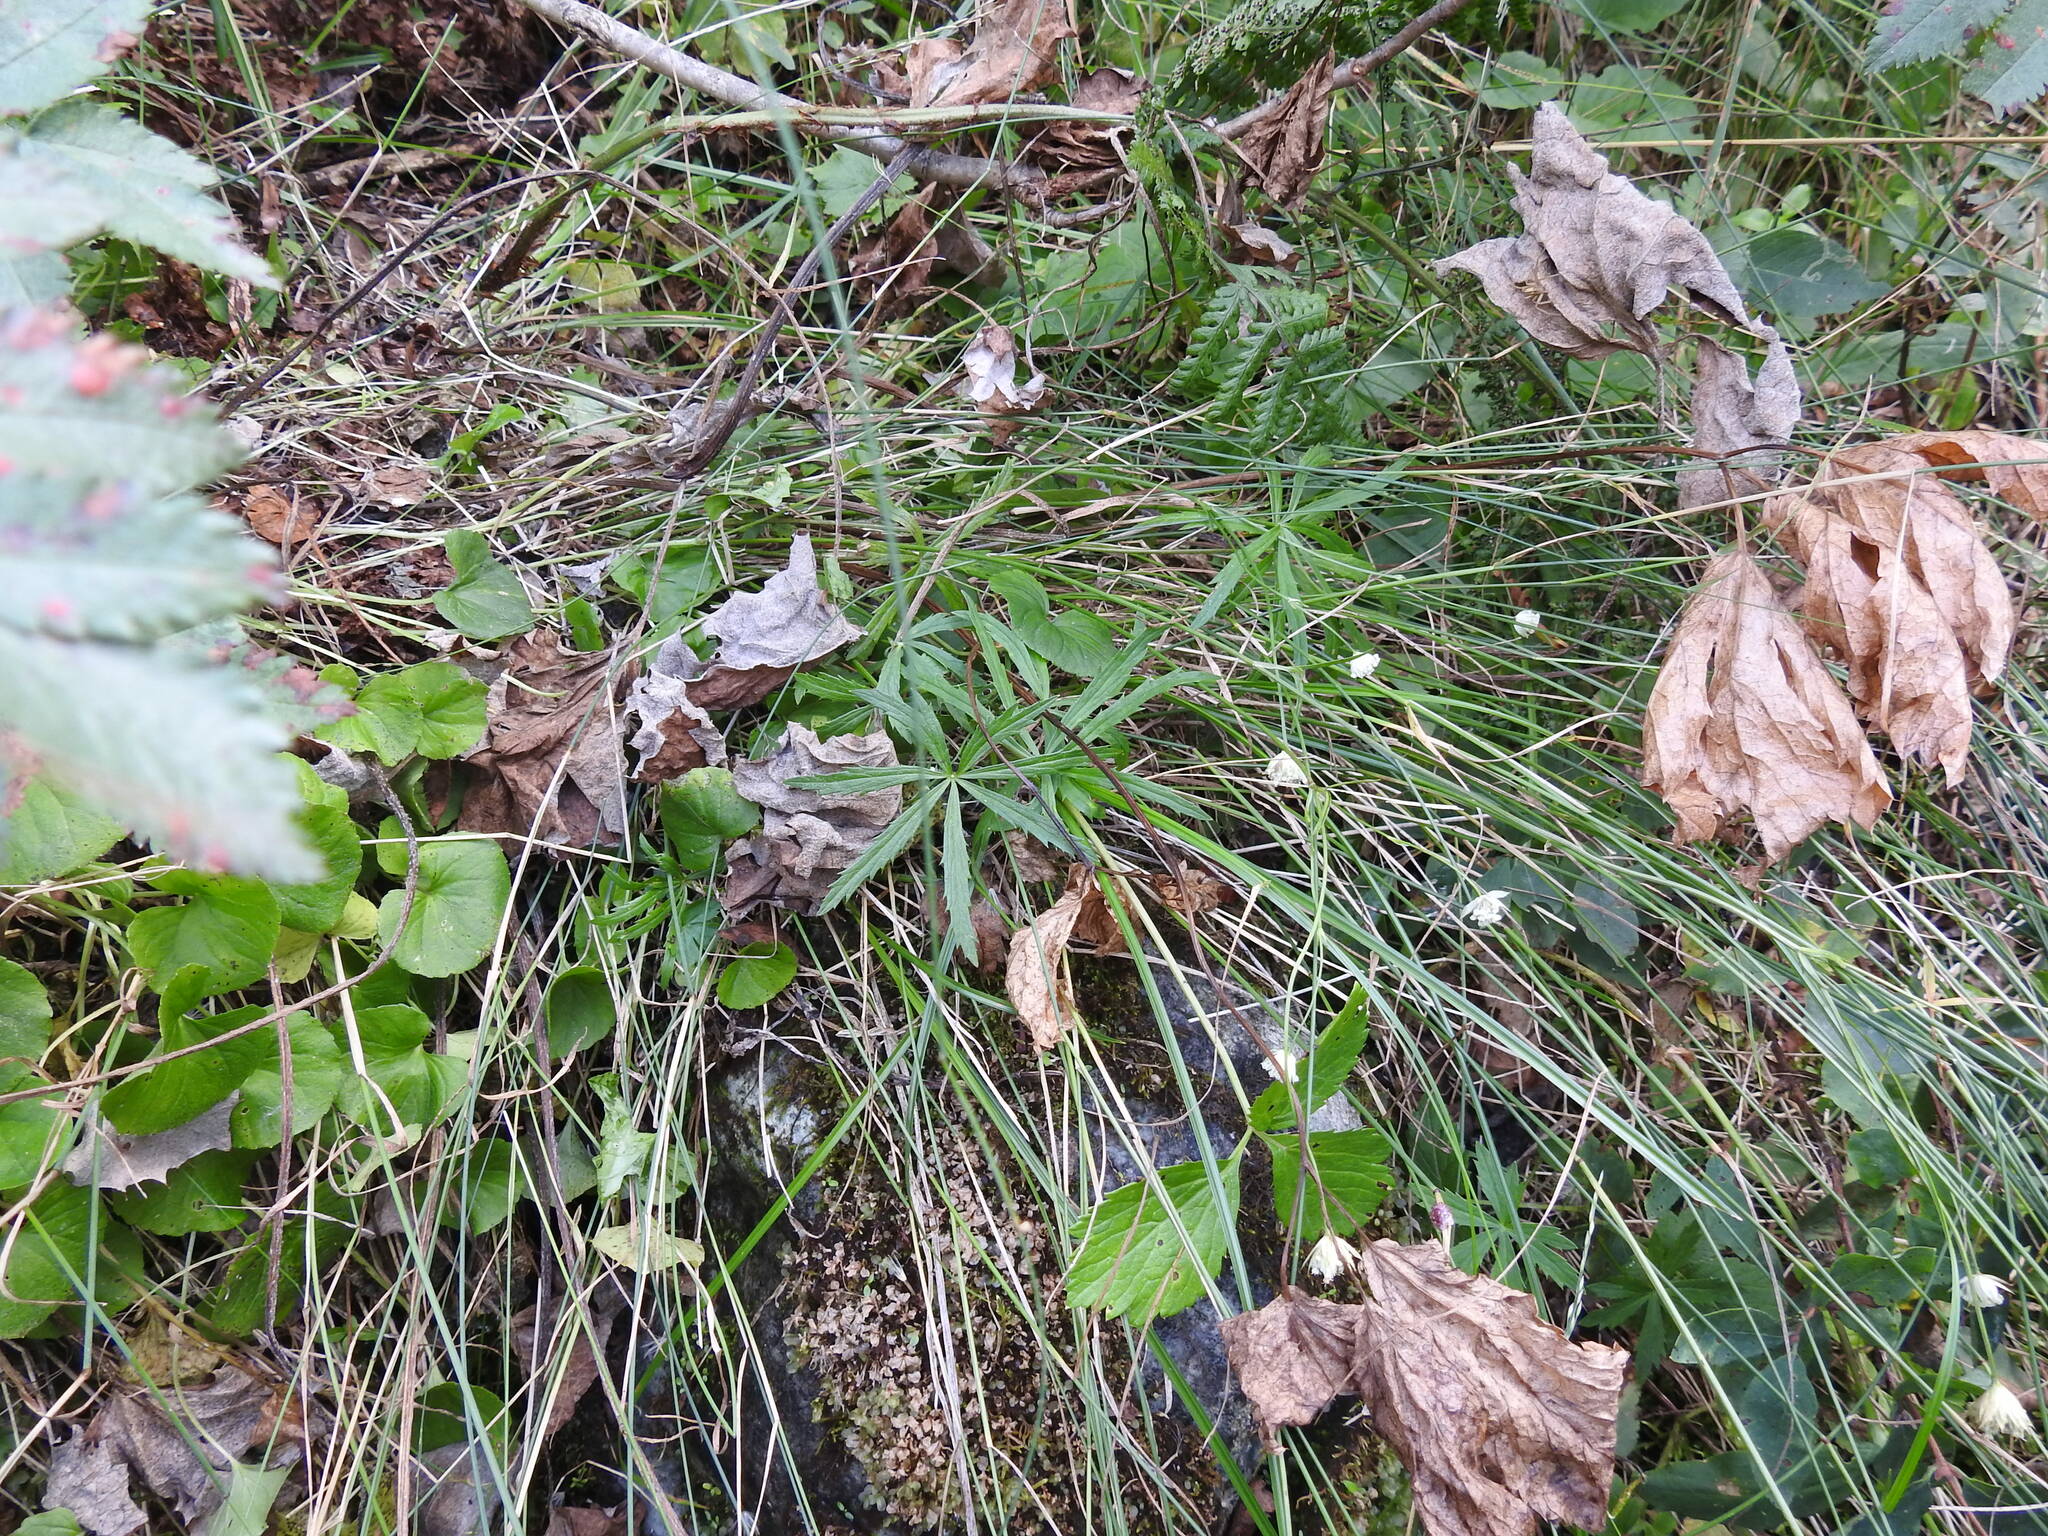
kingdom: Plantae
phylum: Tracheophyta
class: Magnoliopsida
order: Apiales
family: Apiaceae
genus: Astrantia
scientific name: Astrantia minor
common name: Lesser masterwort
